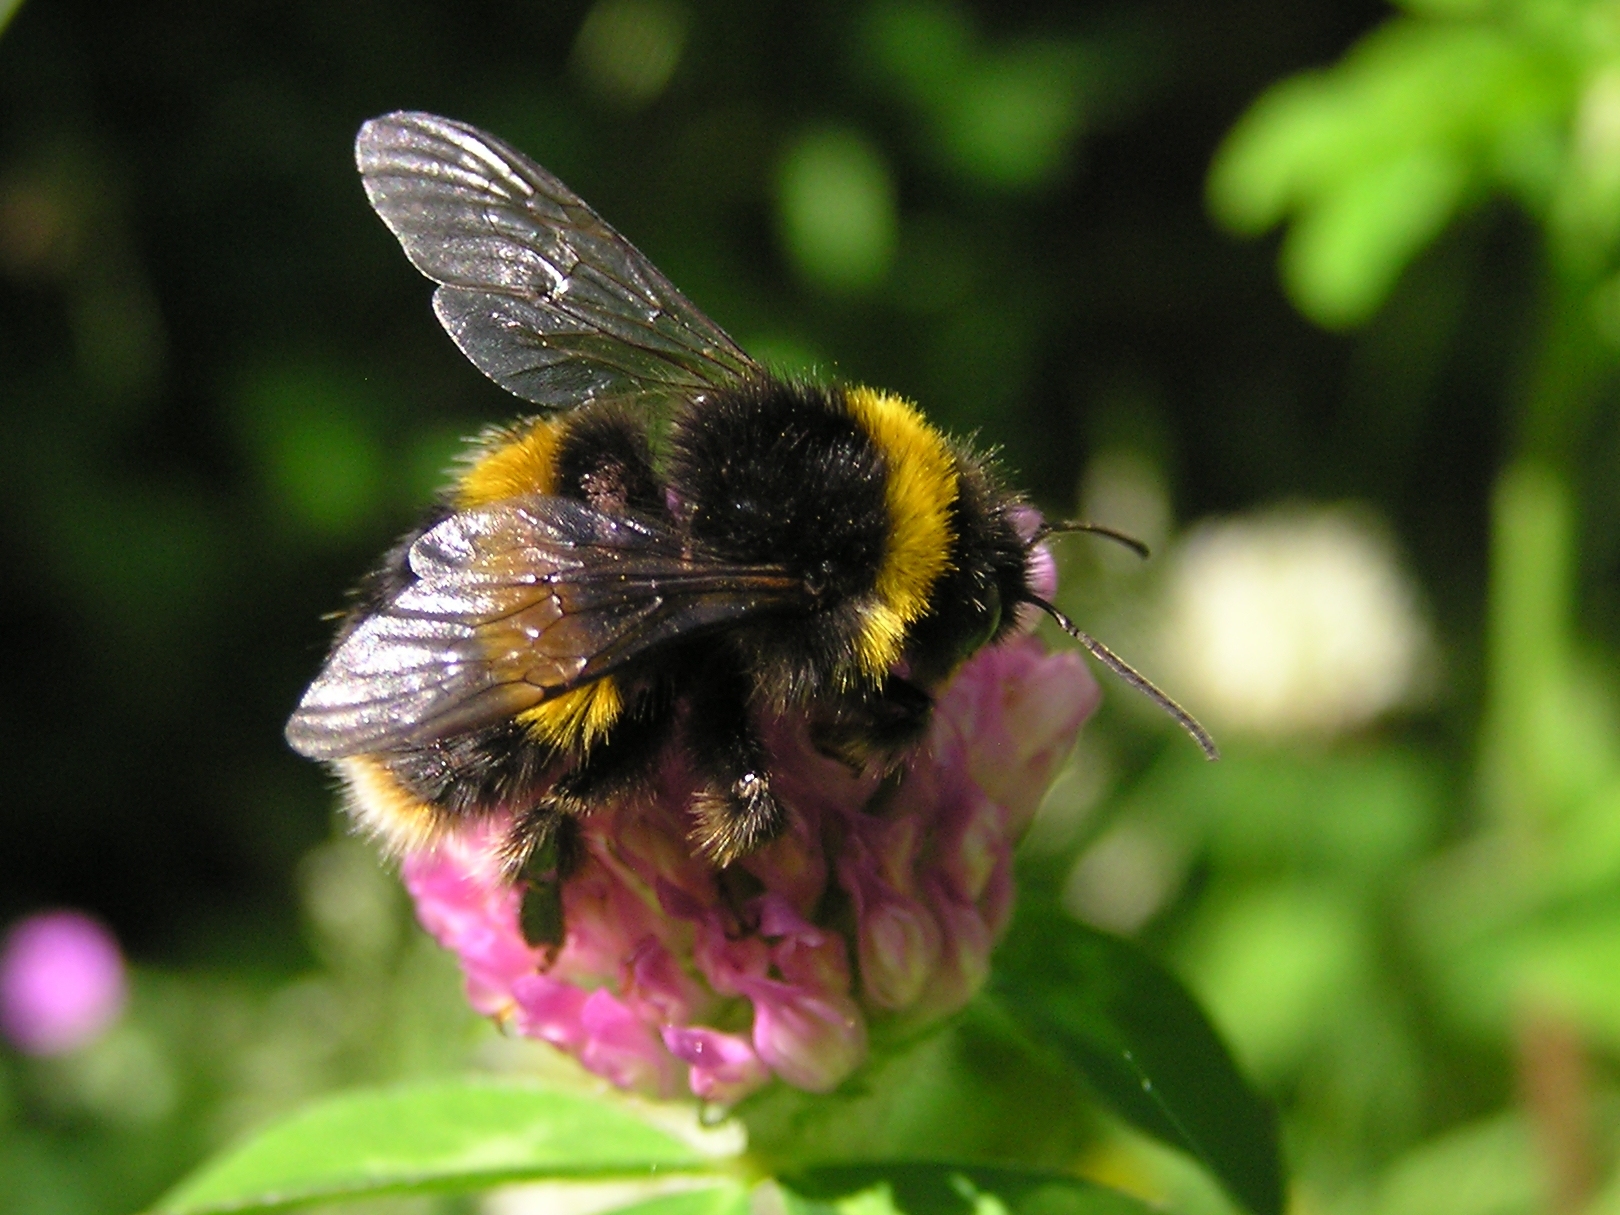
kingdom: Animalia
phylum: Arthropoda
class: Insecta
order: Hymenoptera
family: Apidae
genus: Bombus
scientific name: Bombus terrestris
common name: Buff-tailed bumblebee
